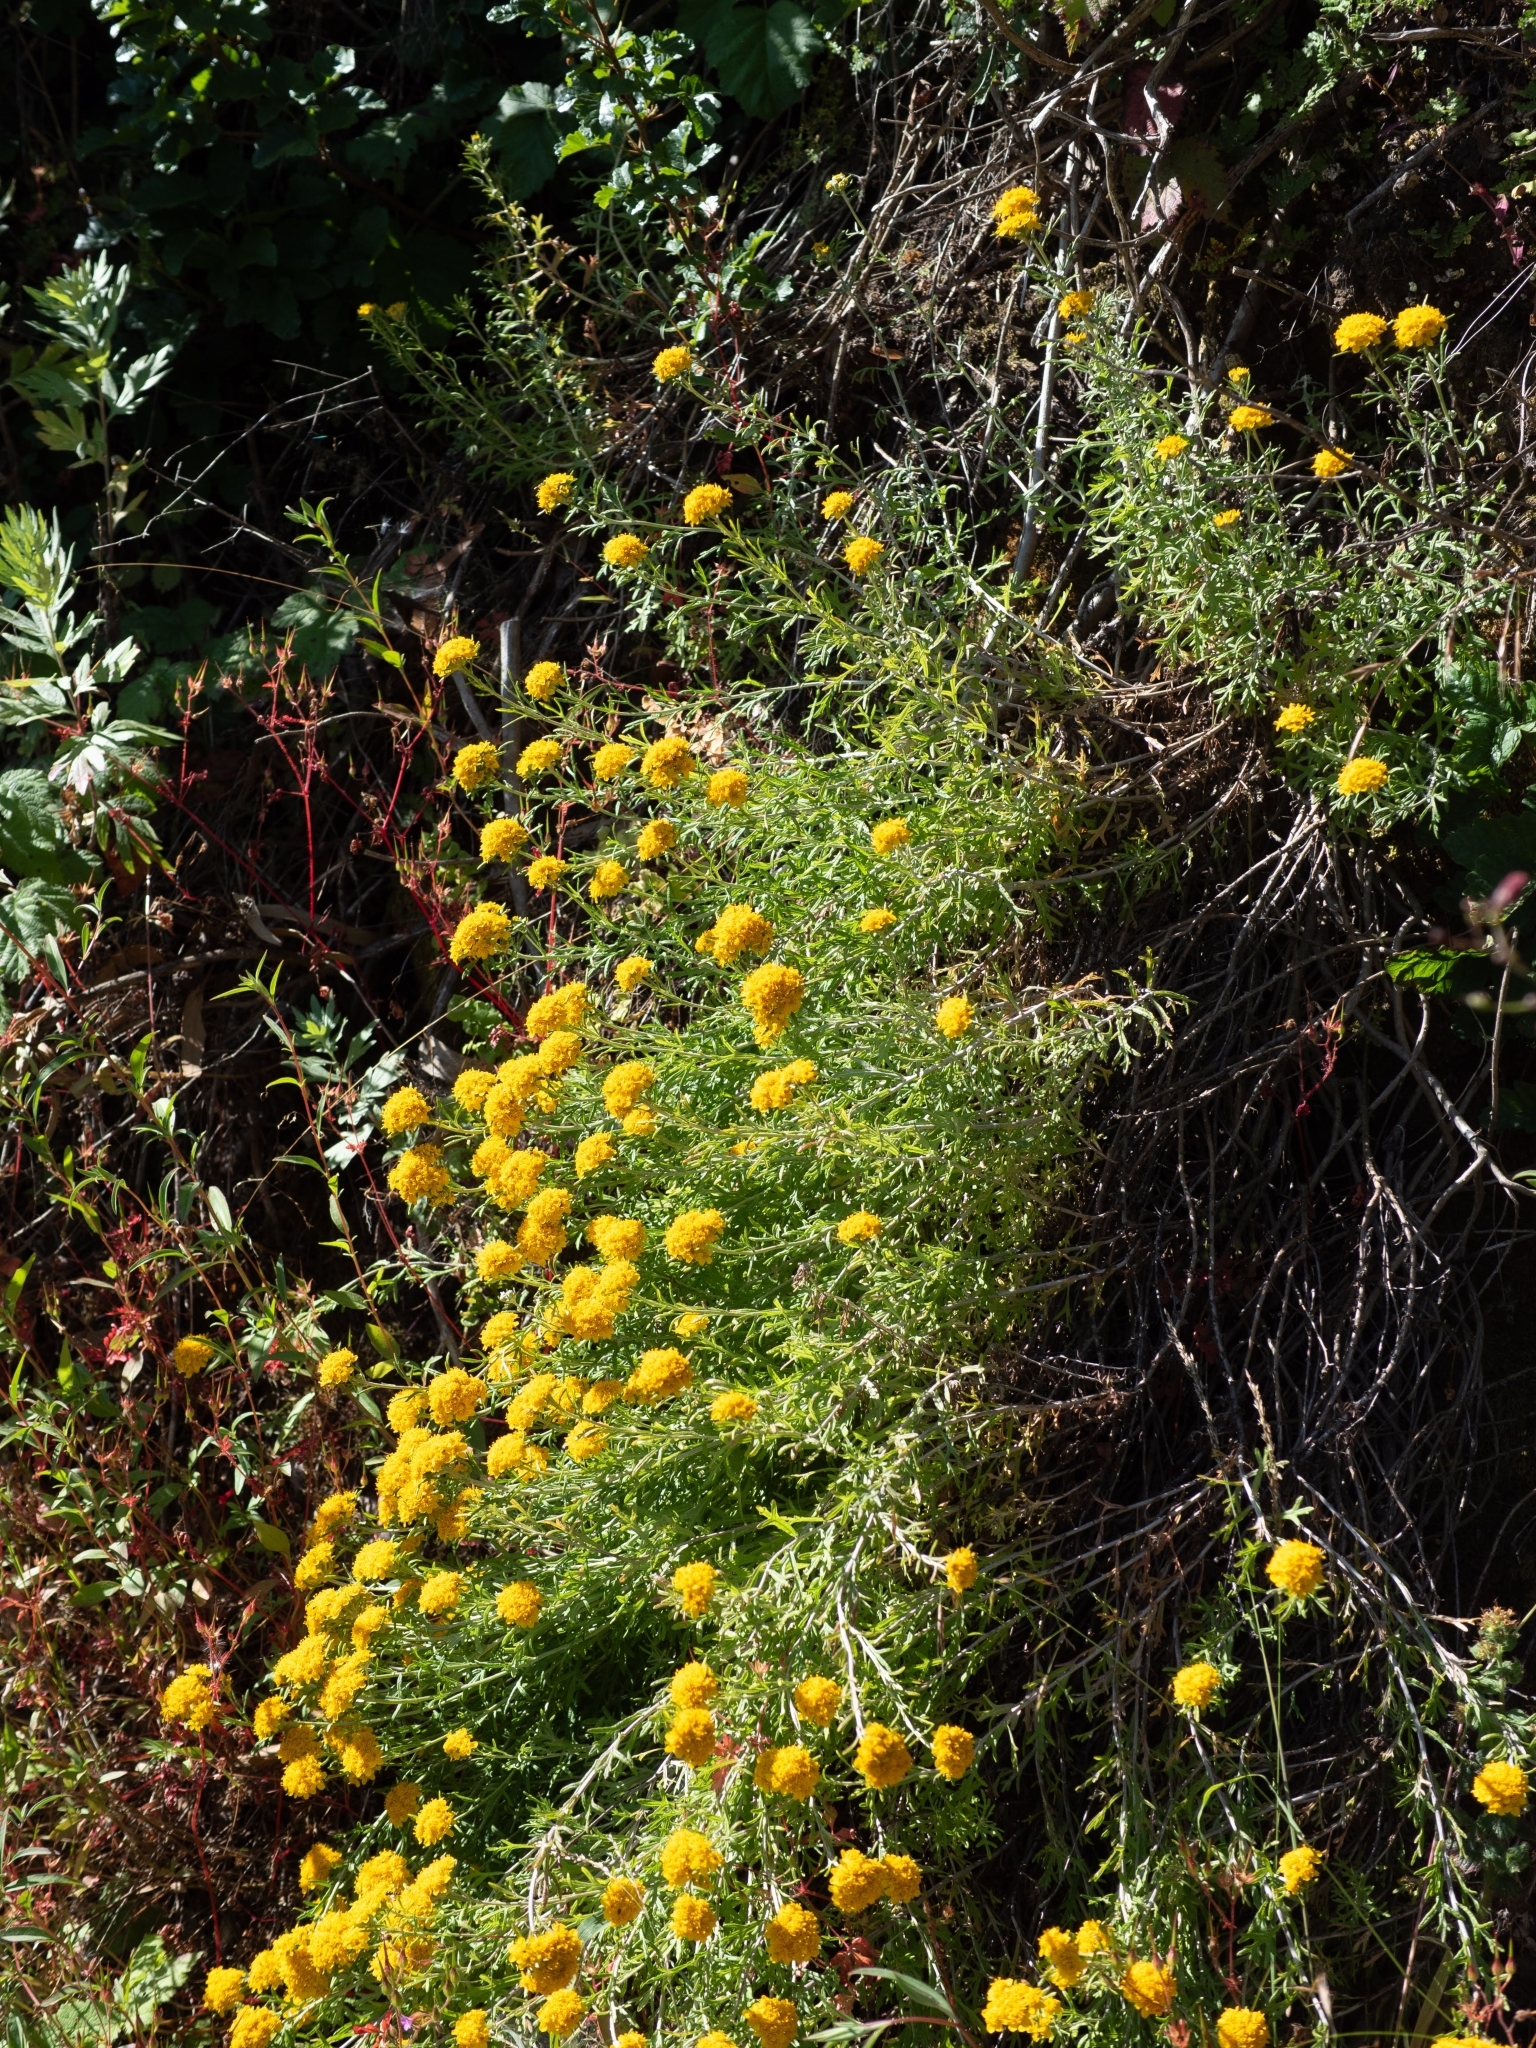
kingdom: Plantae
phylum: Tracheophyta
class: Magnoliopsida
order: Asterales
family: Asteraceae
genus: Eriophyllum
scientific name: Eriophyllum confertiflorum
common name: Golden-yarrow
